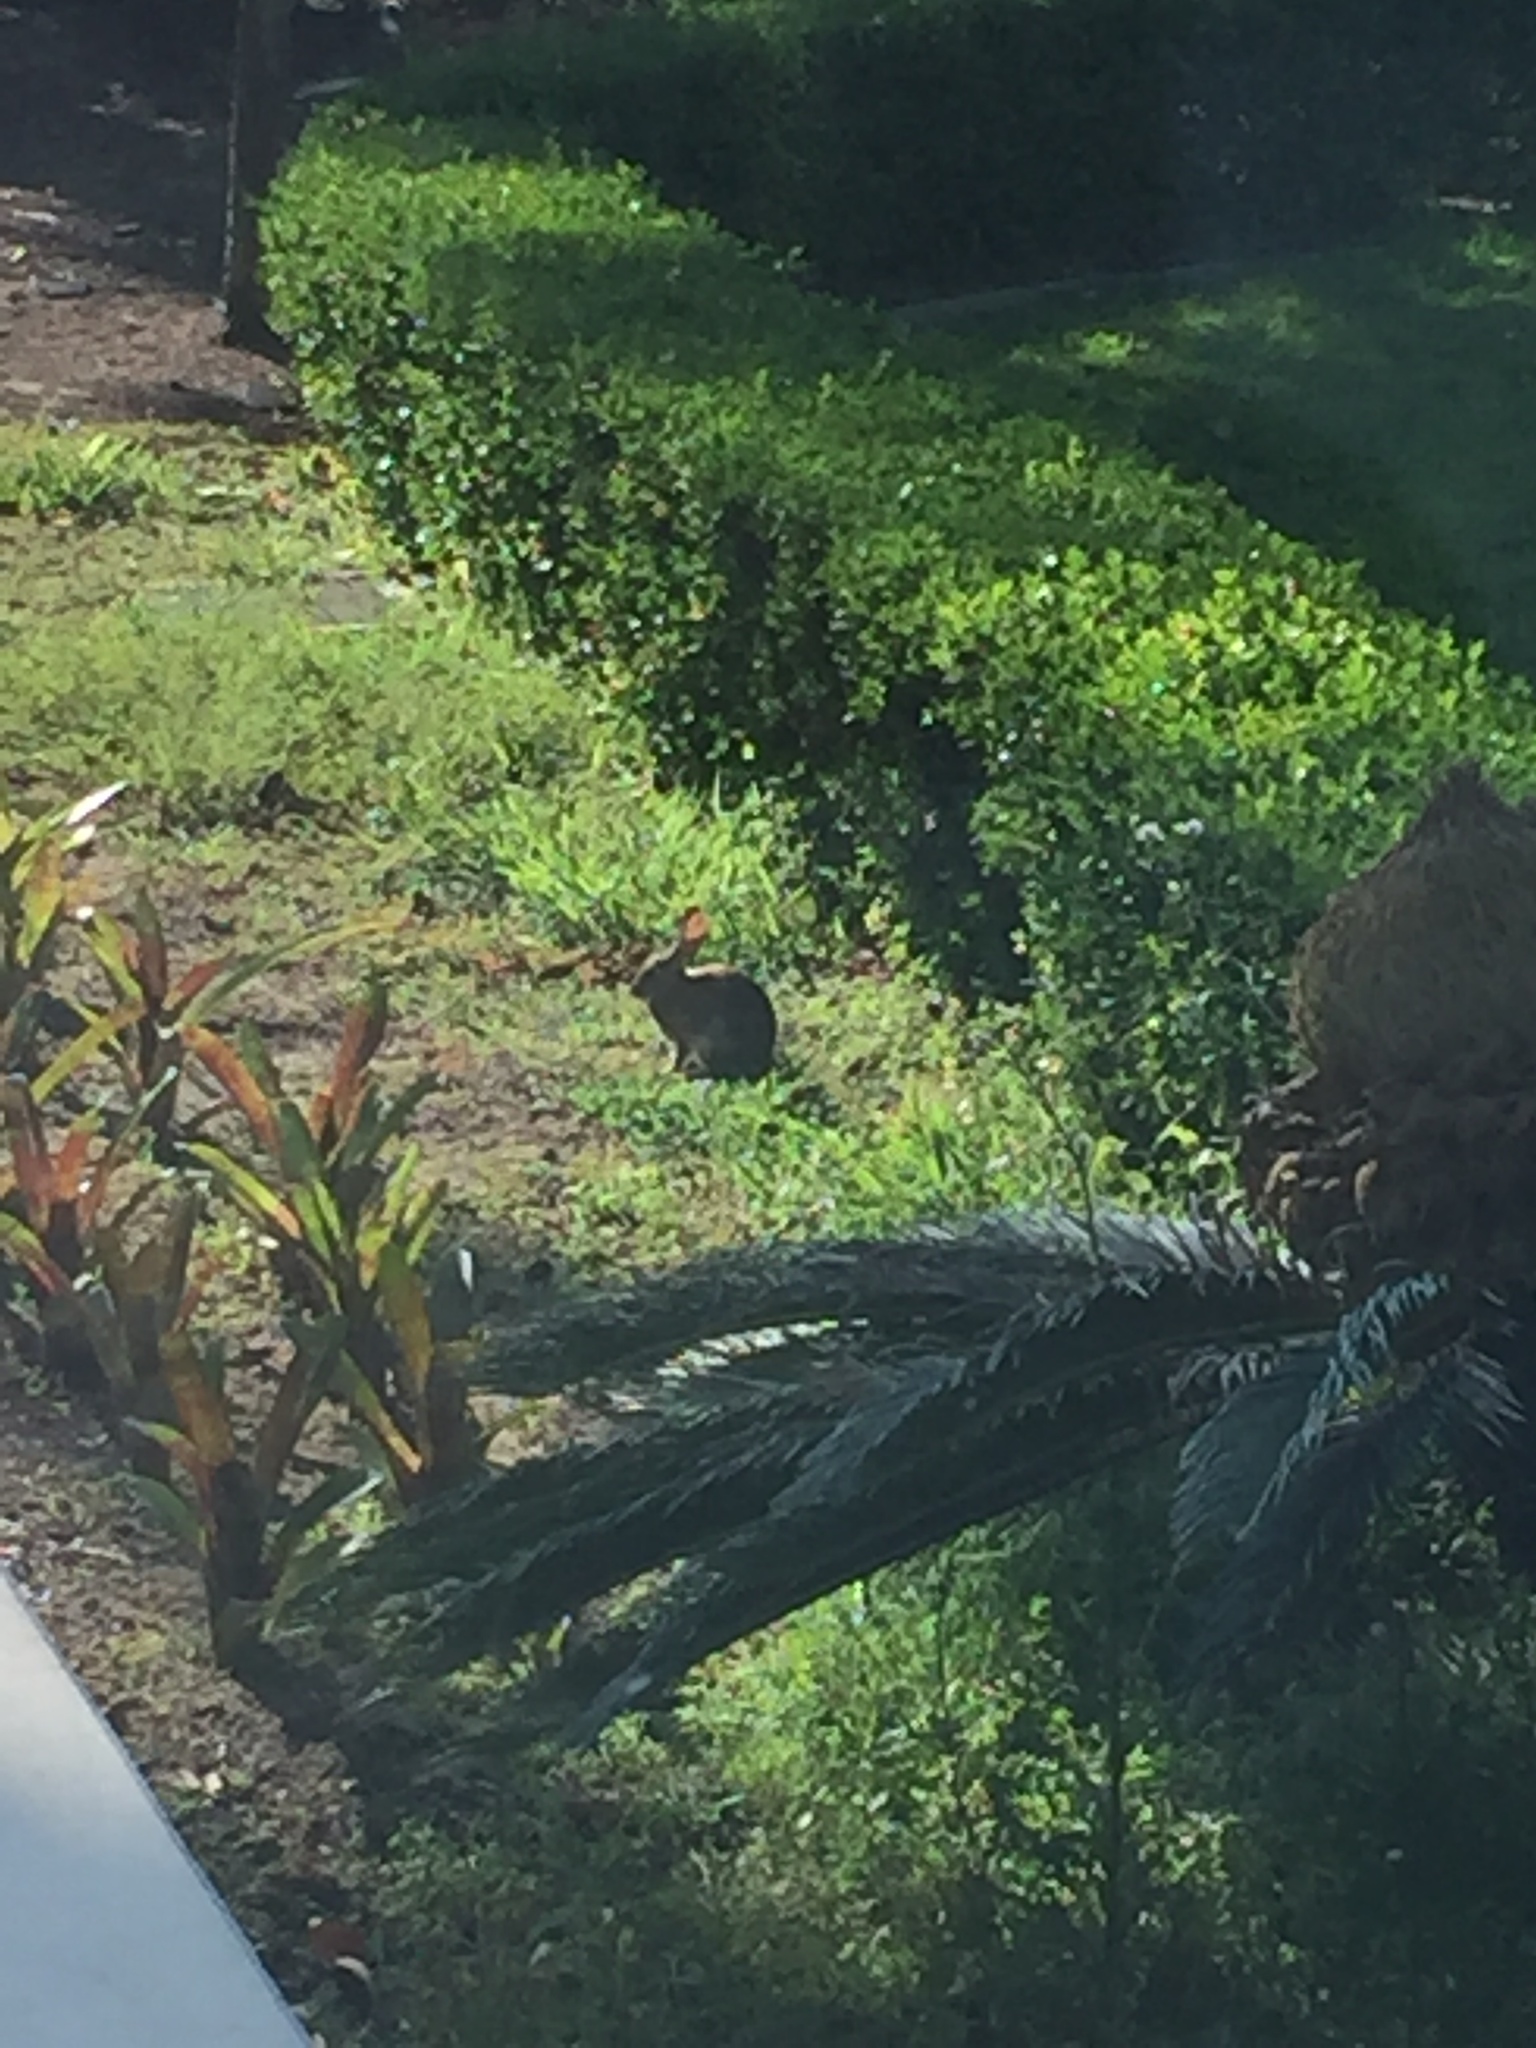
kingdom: Animalia
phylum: Chordata
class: Mammalia
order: Lagomorpha
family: Leporidae
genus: Sylvilagus
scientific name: Sylvilagus audubonii
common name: Desert cottontail
